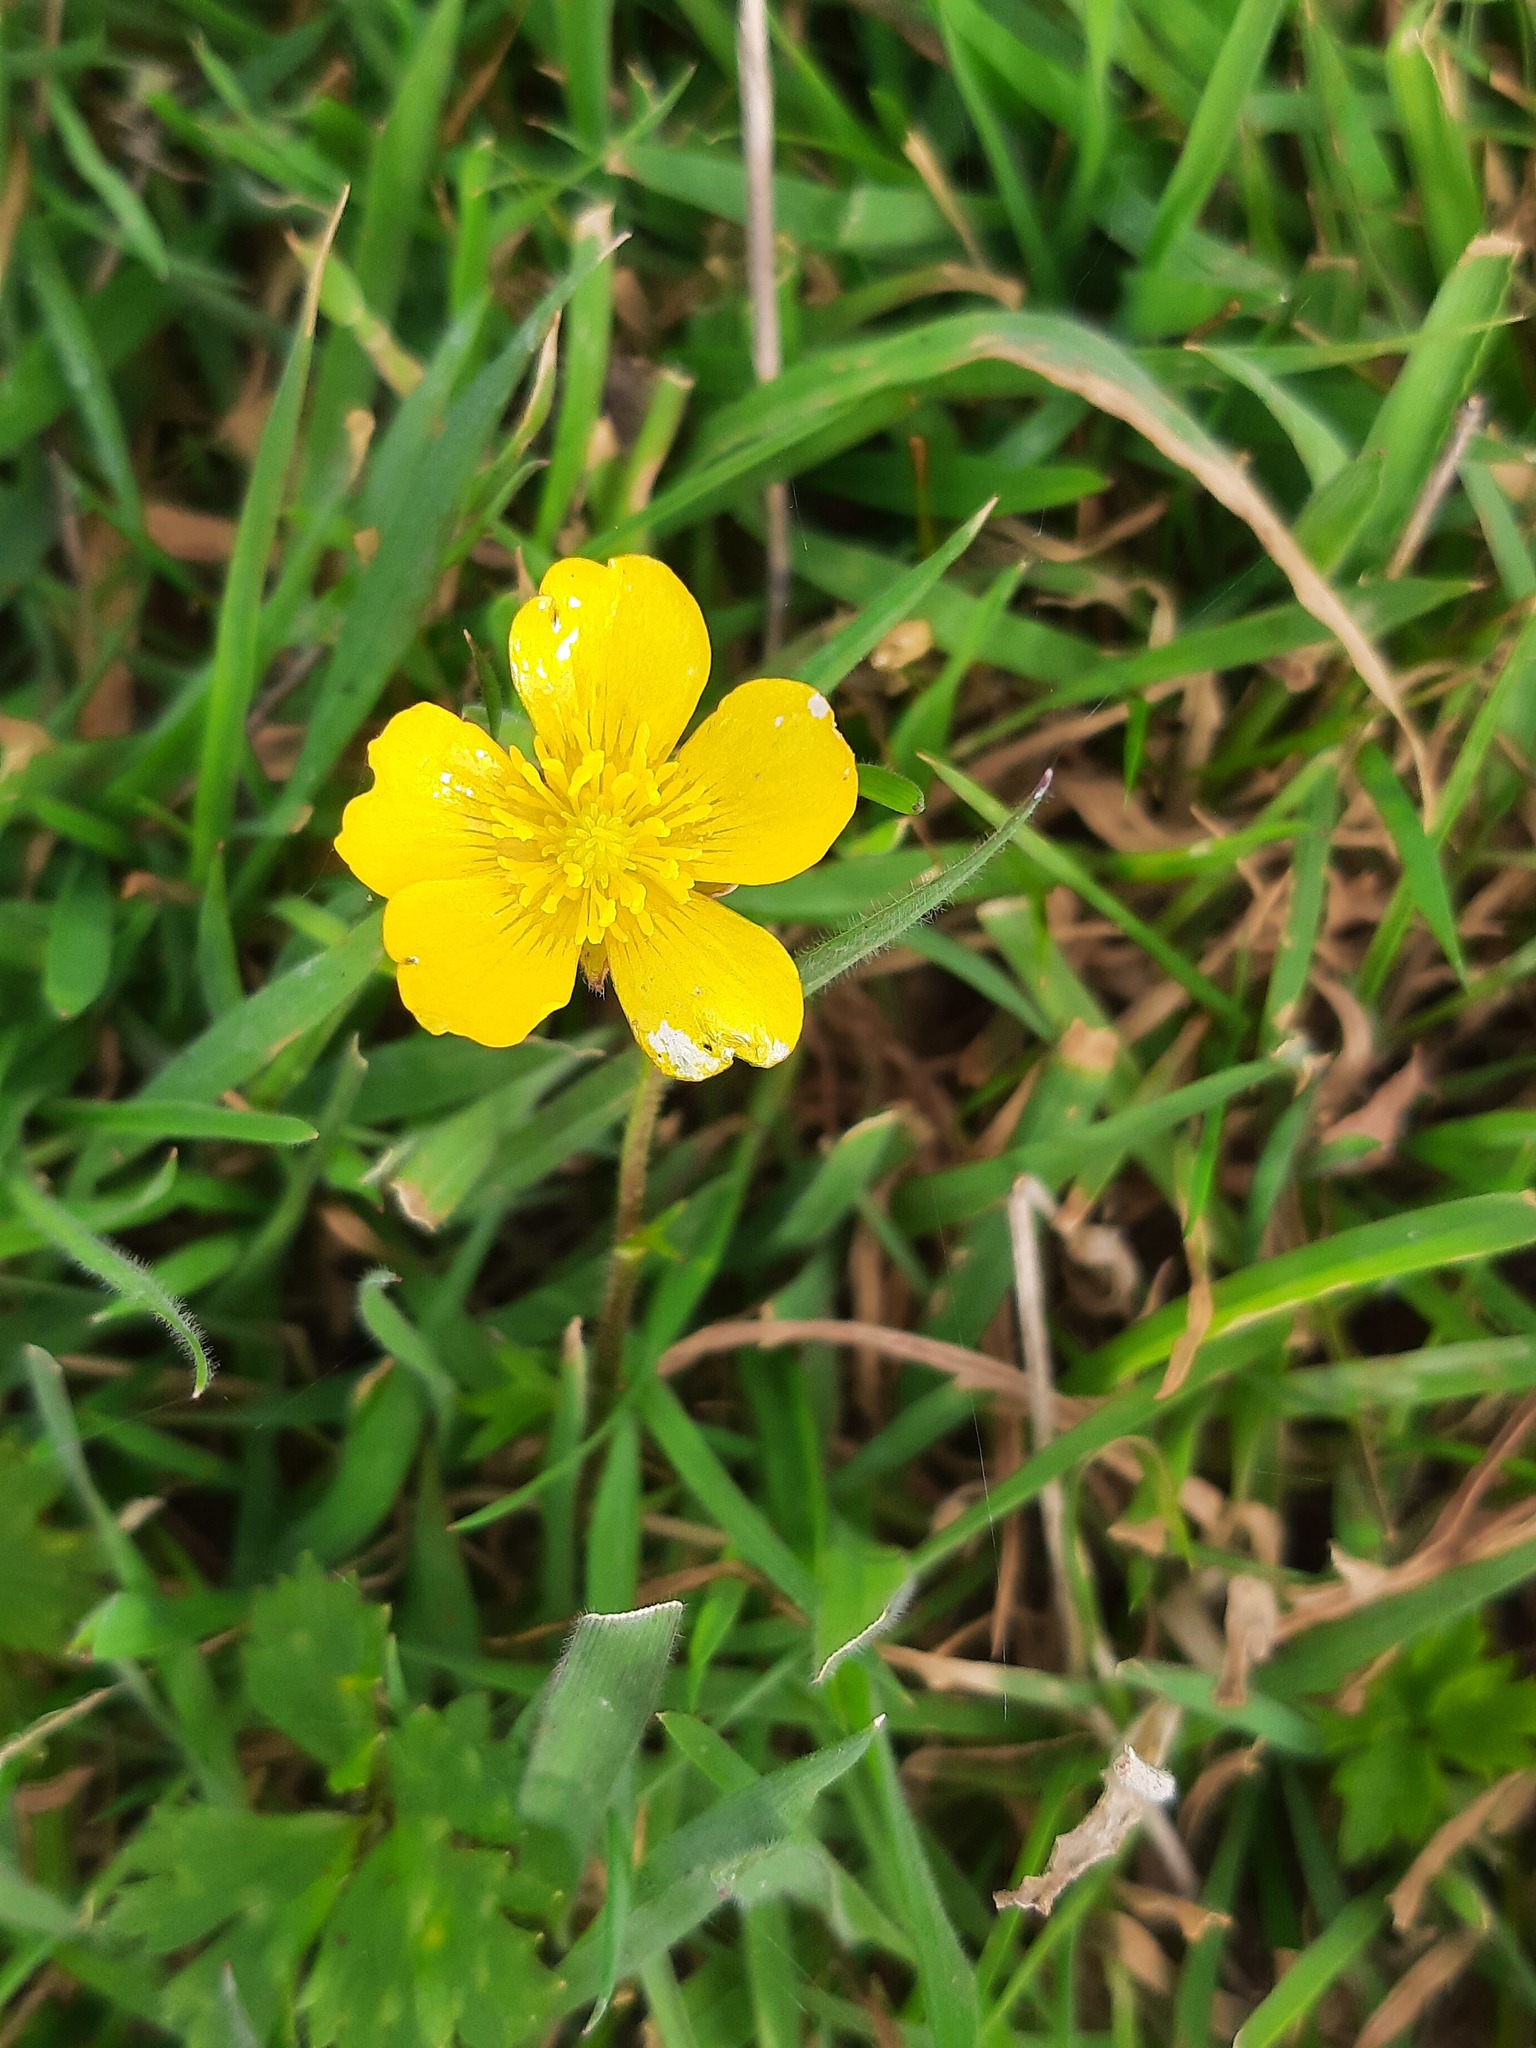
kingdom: Plantae
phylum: Tracheophyta
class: Magnoliopsida
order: Ranunculales
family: Ranunculaceae
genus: Ranunculus
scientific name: Ranunculus repens
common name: Creeping buttercup
